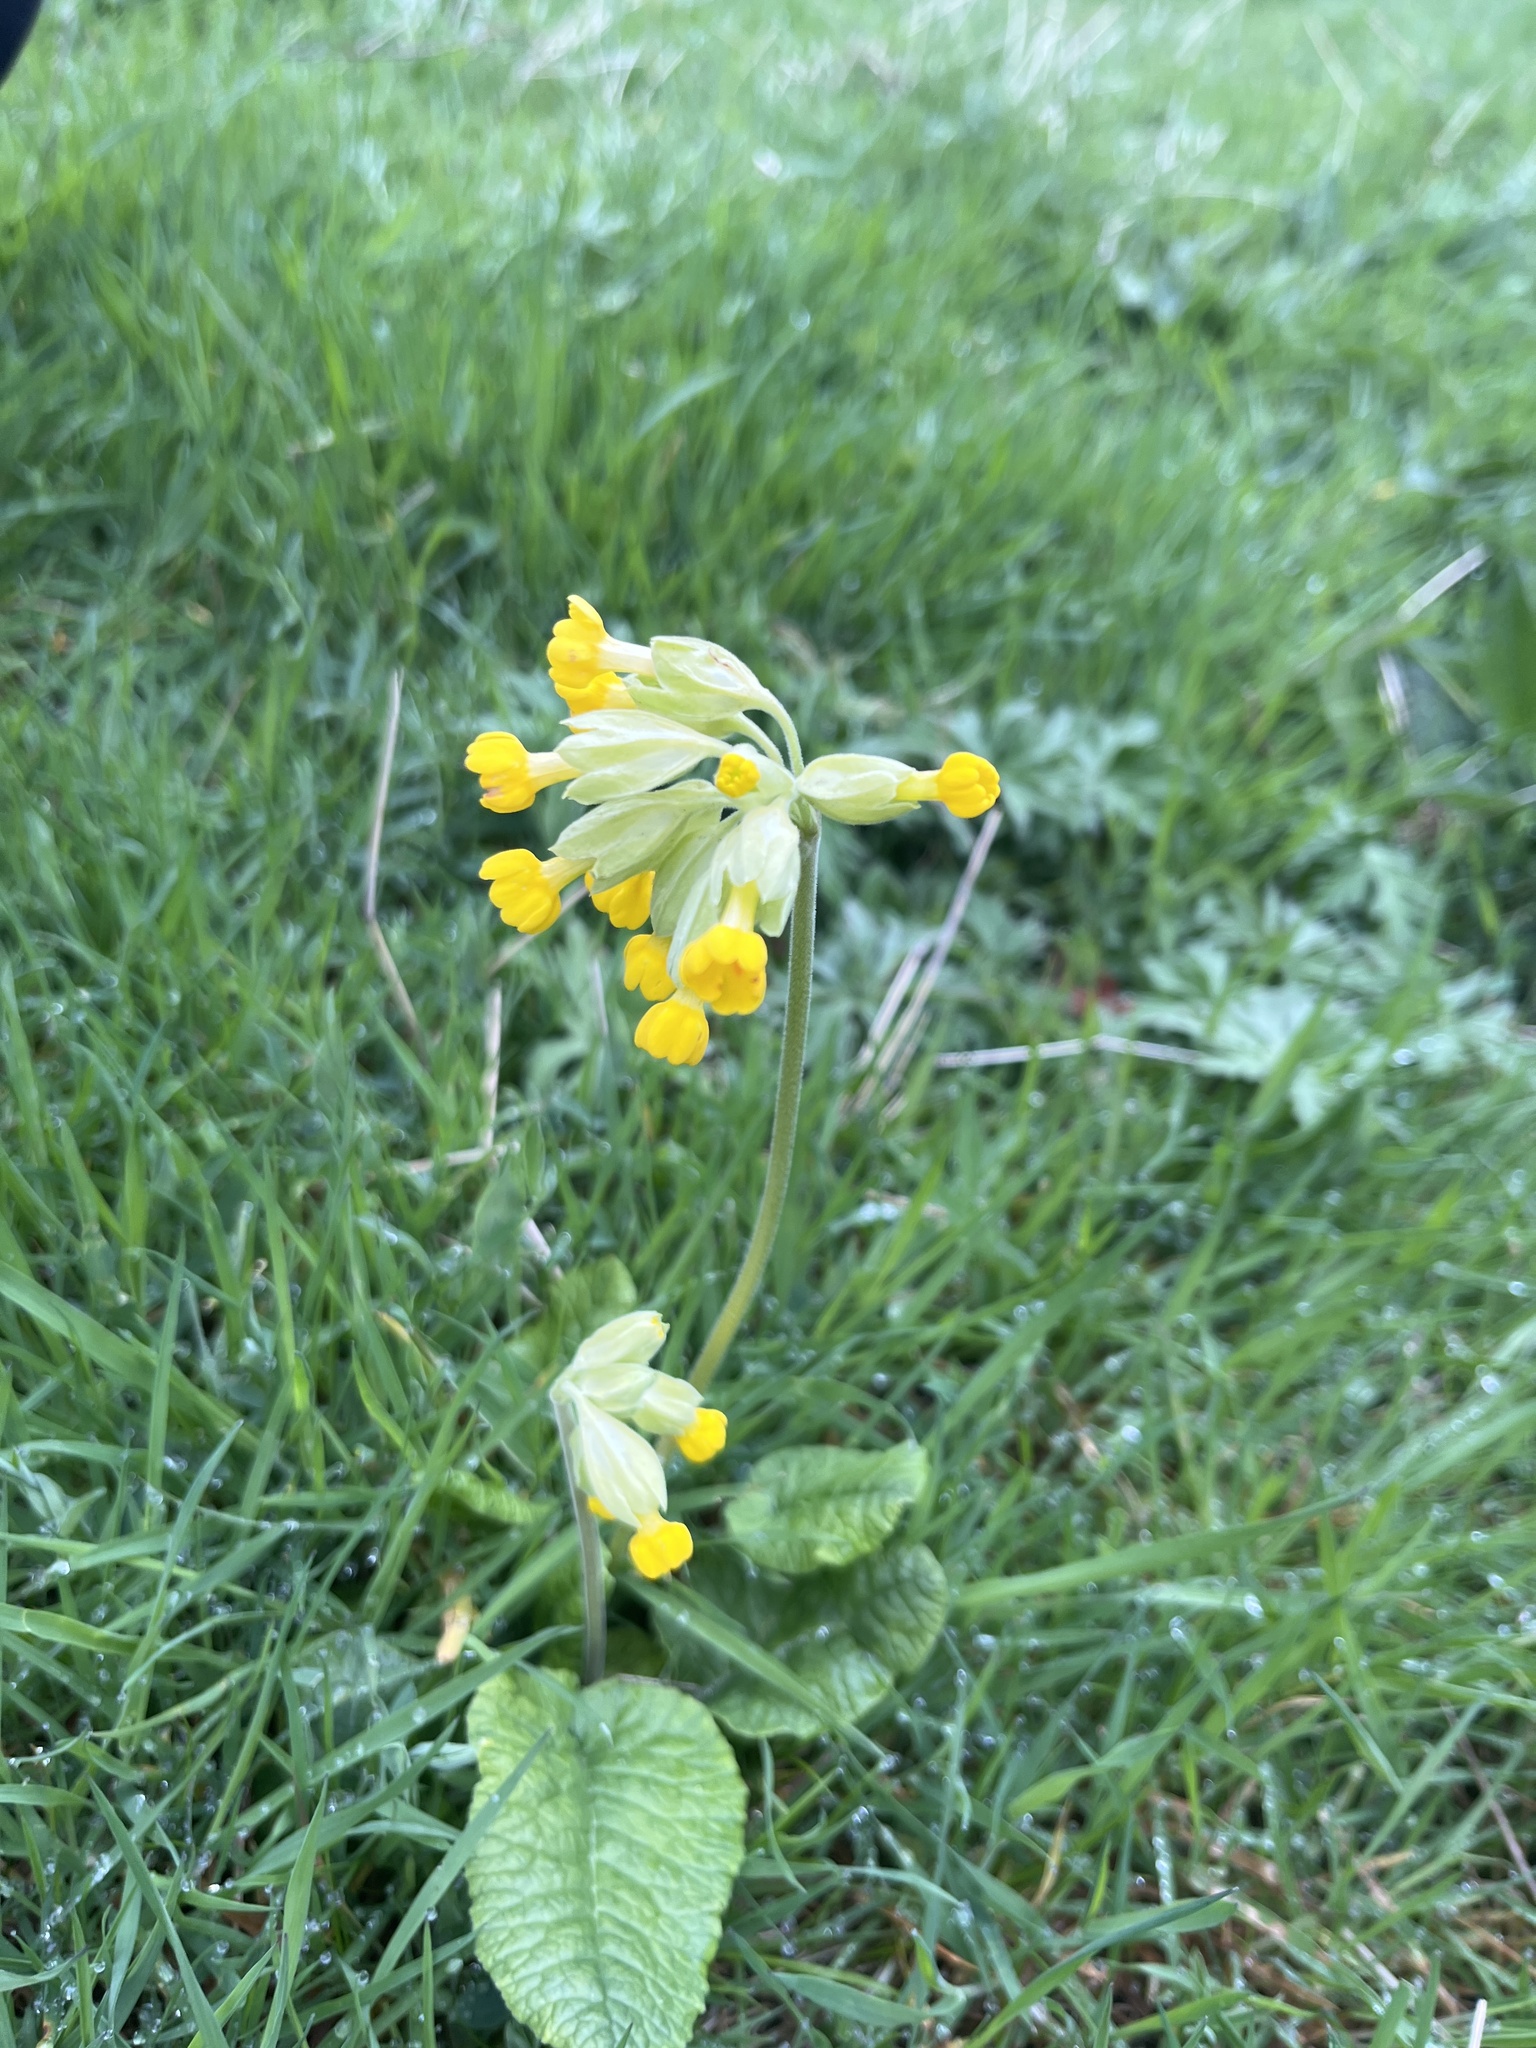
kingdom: Plantae
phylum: Tracheophyta
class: Magnoliopsida
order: Ericales
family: Primulaceae
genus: Primula
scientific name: Primula veris
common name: Cowslip
